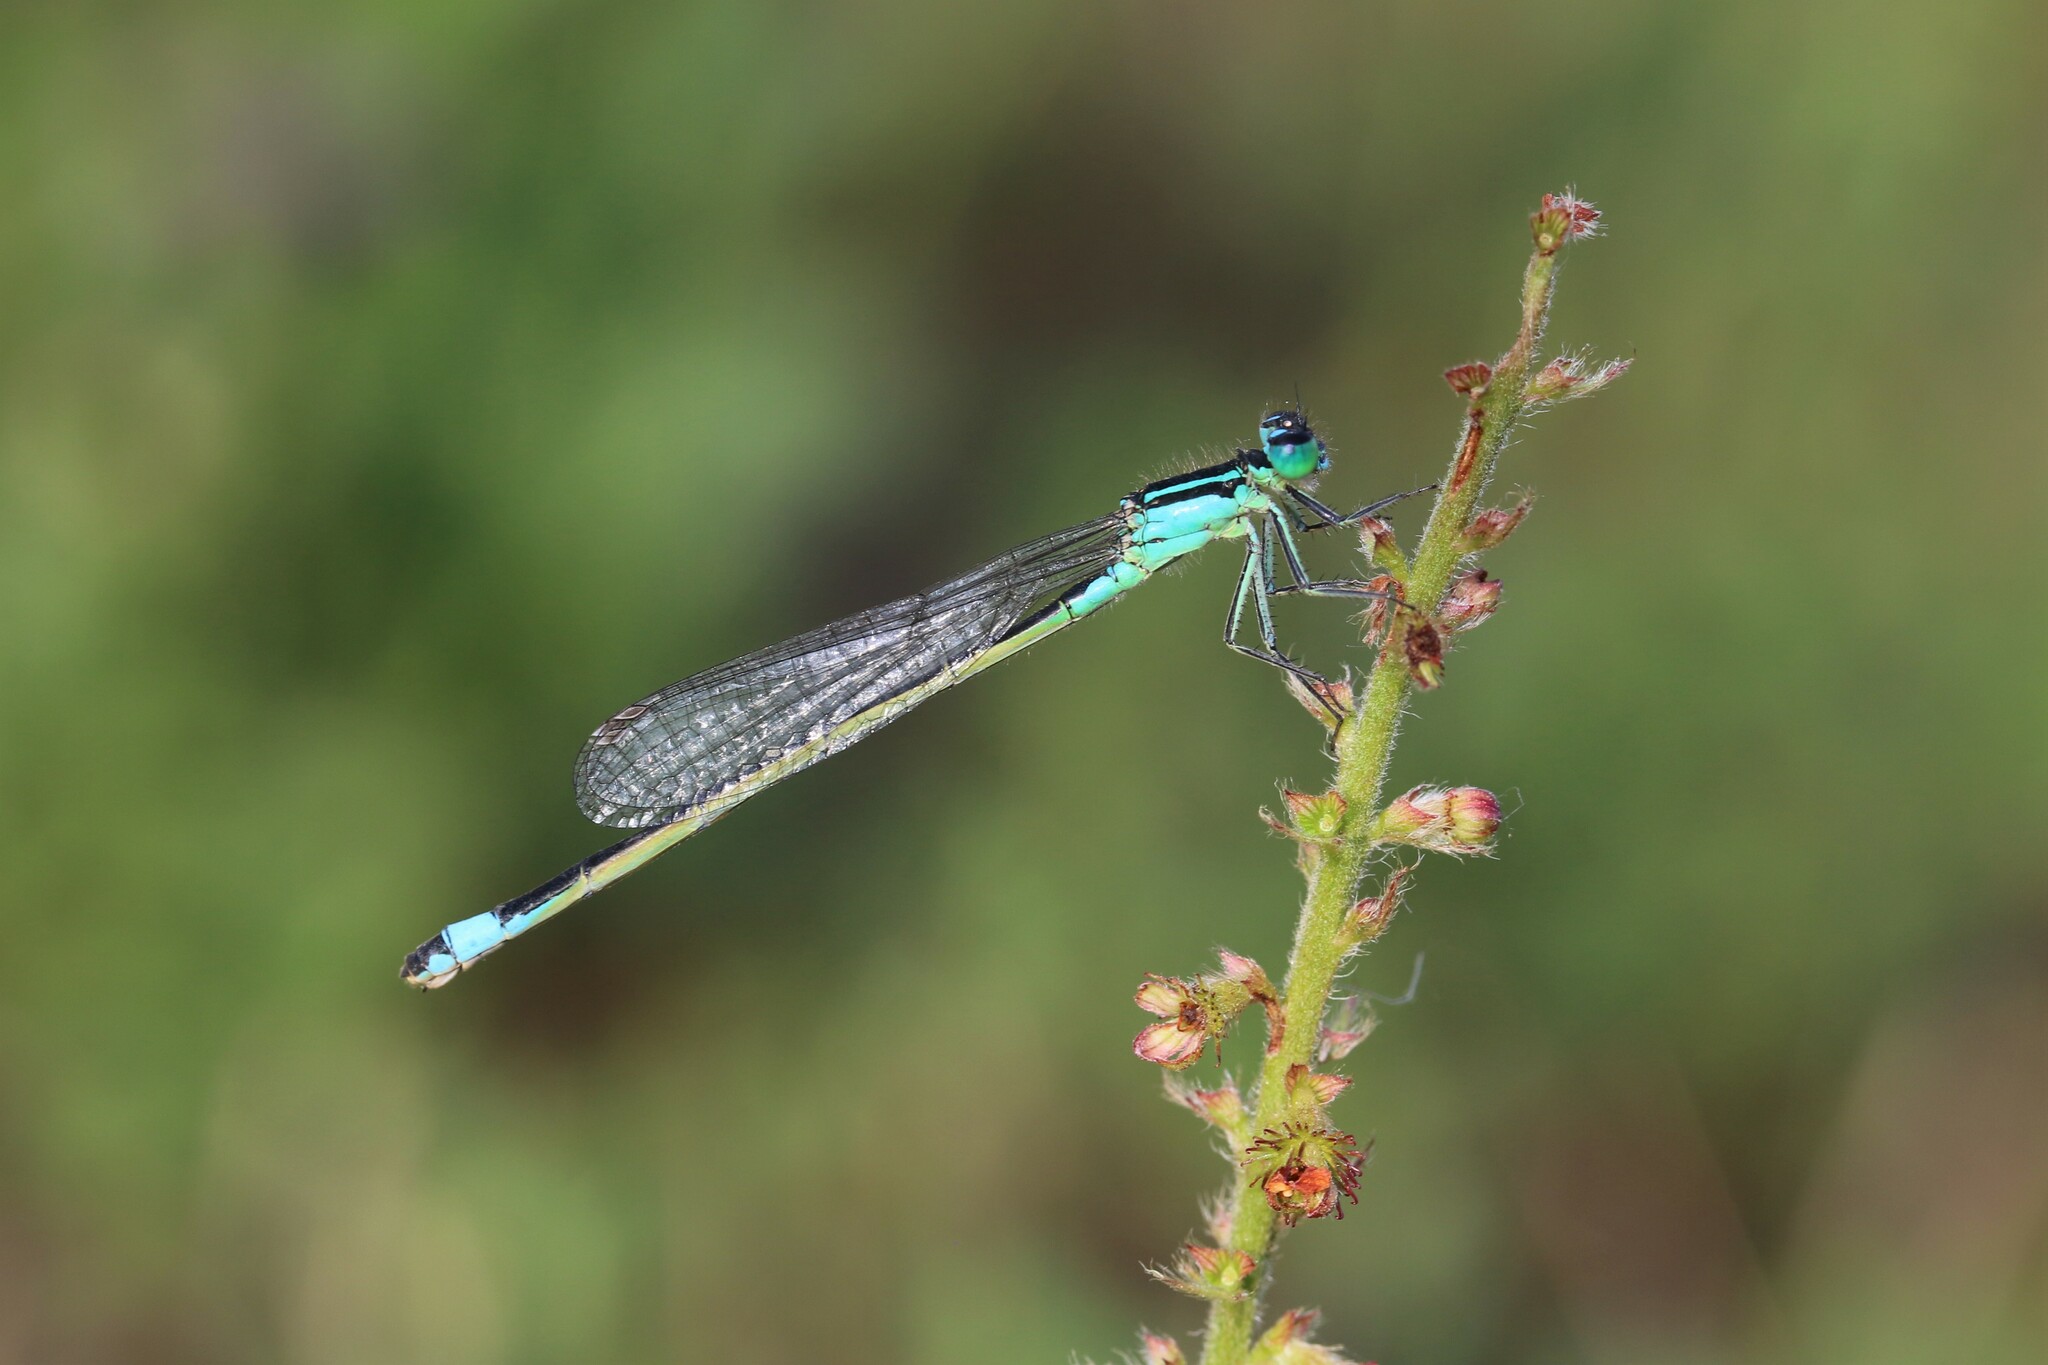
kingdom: Animalia
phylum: Arthropoda
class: Insecta
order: Odonata
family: Coenagrionidae
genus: Ischnura
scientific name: Ischnura elegans
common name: Blue-tailed damselfly
